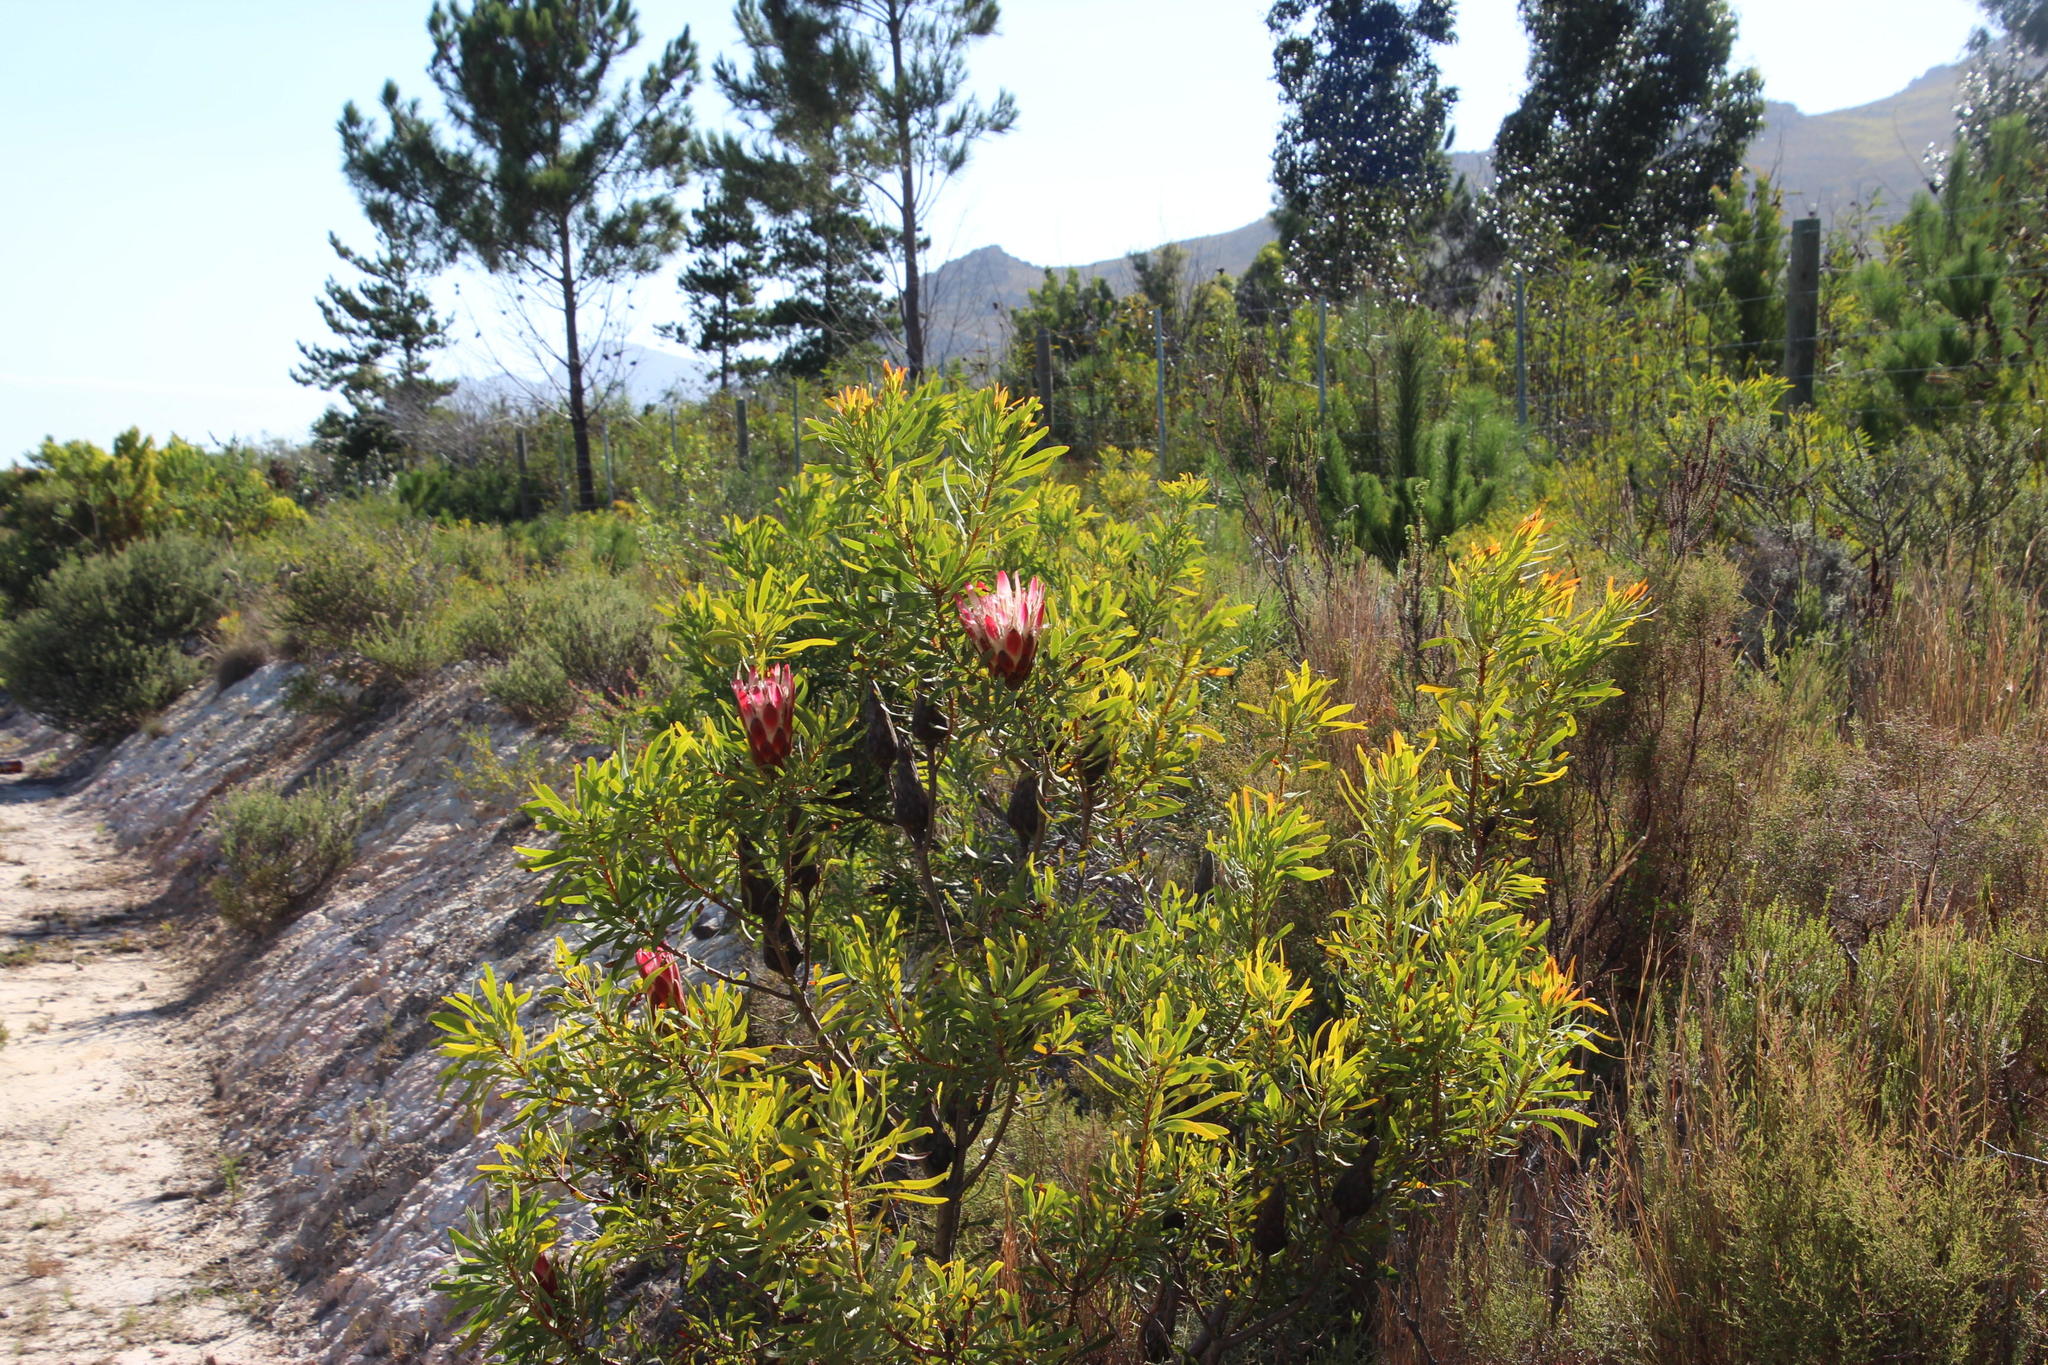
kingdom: Plantae
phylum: Tracheophyta
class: Magnoliopsida
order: Proteales
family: Proteaceae
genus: Protea
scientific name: Protea repens
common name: Sugarbush
